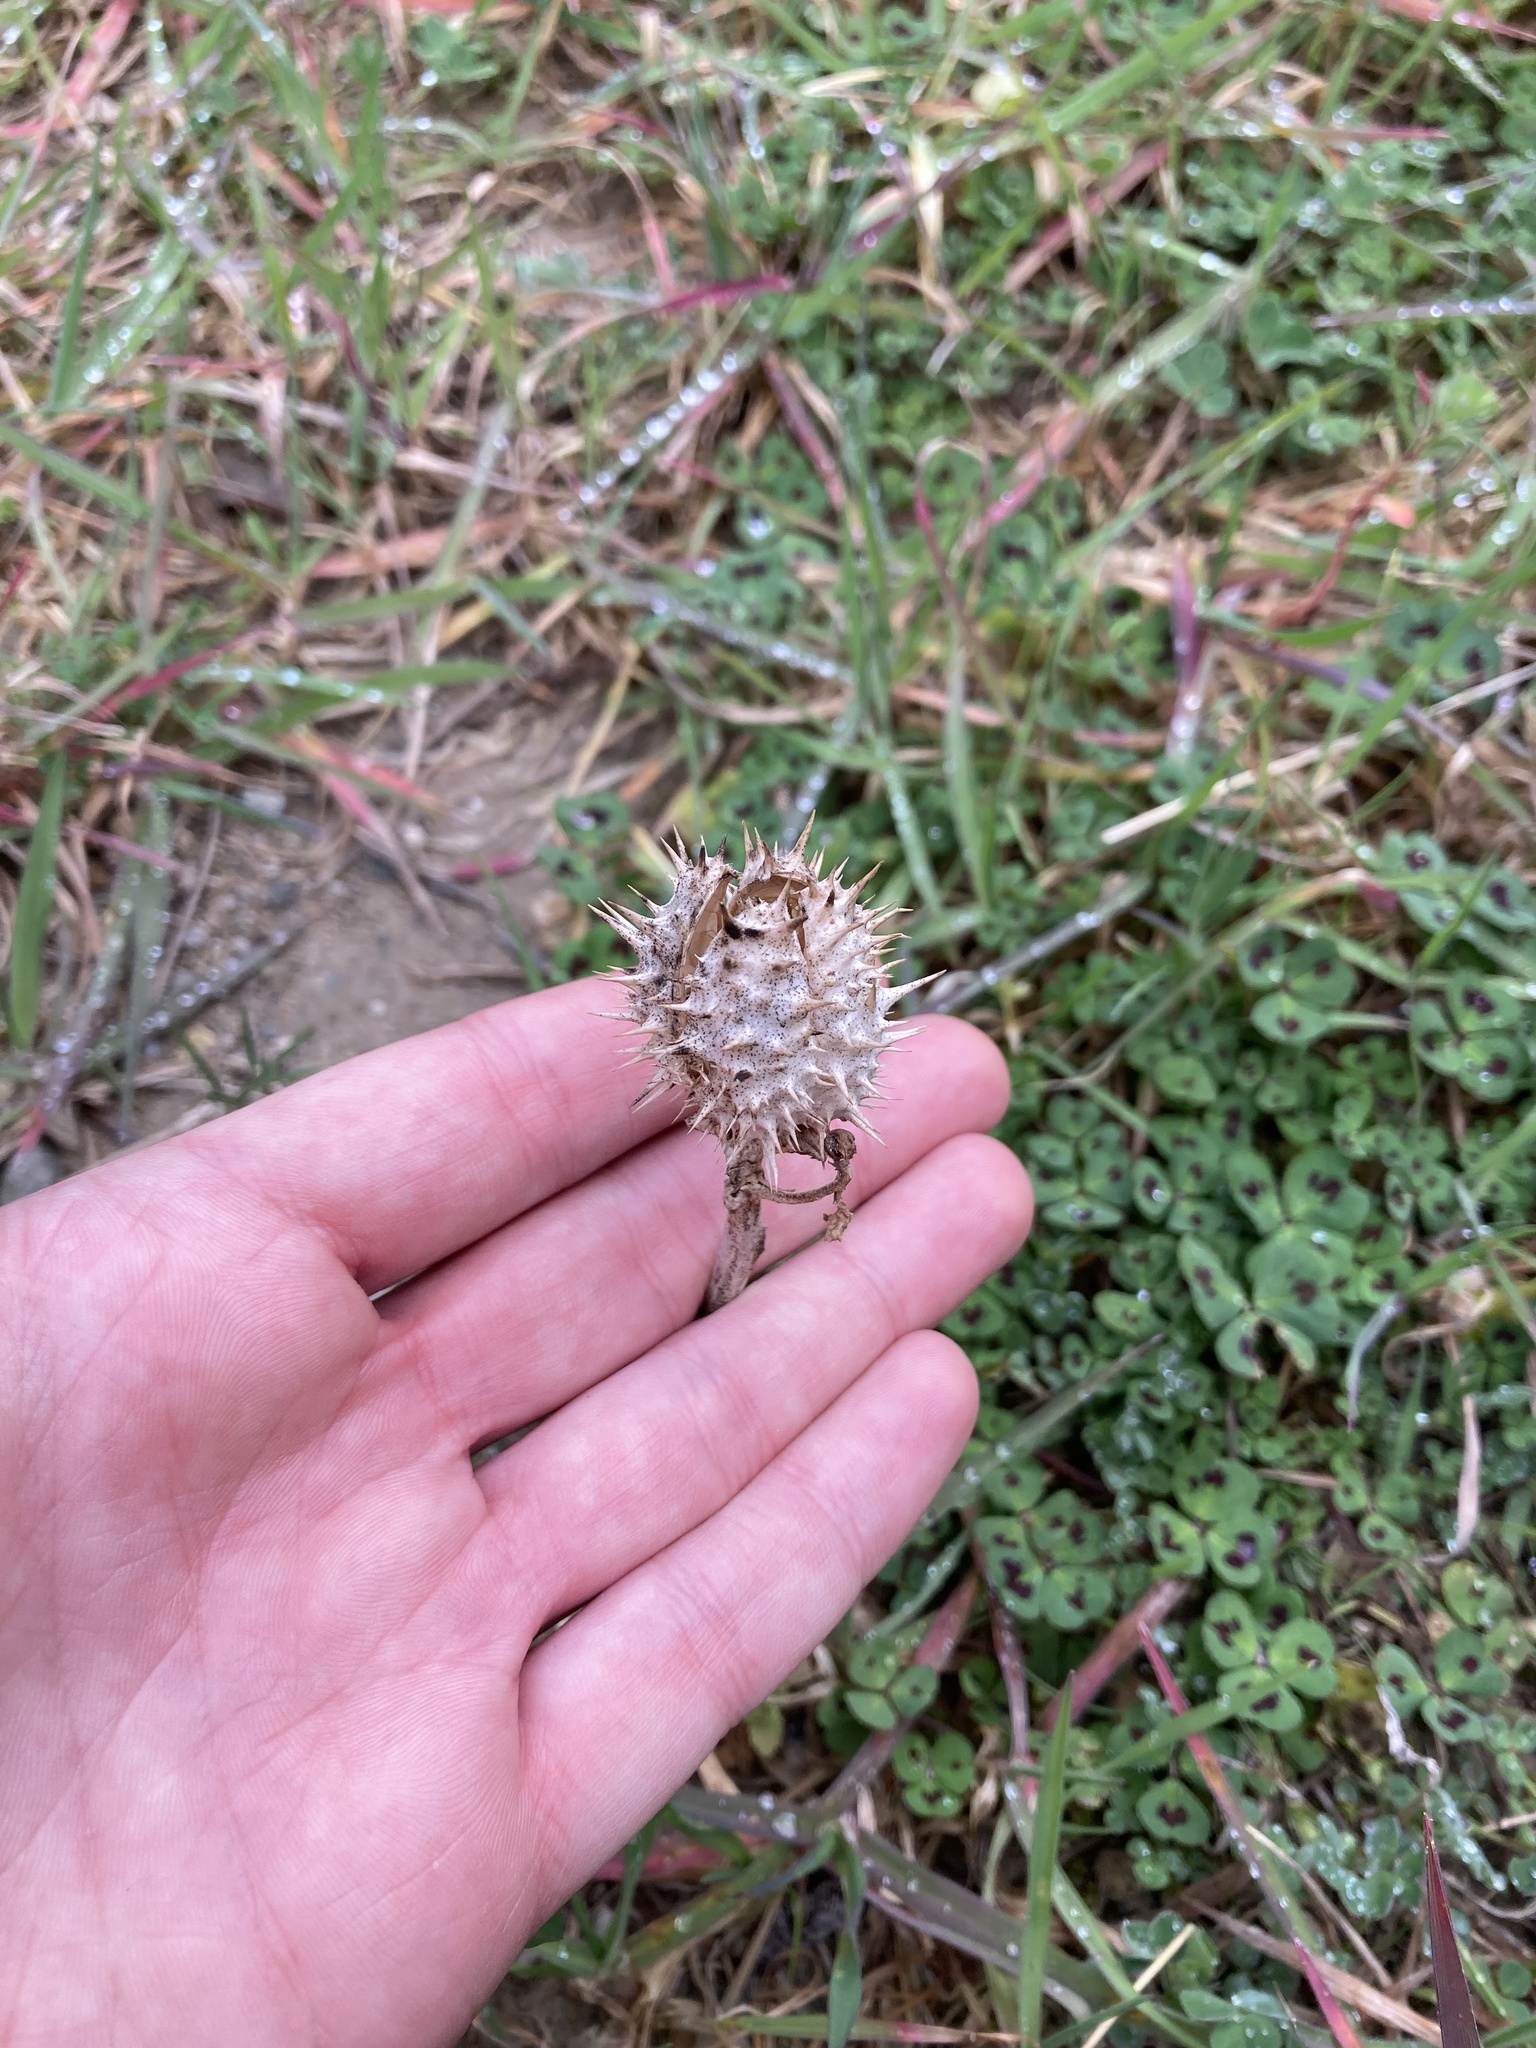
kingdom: Plantae
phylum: Tracheophyta
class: Magnoliopsida
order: Solanales
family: Solanaceae
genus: Datura
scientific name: Datura stramonium
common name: Thorn-apple
